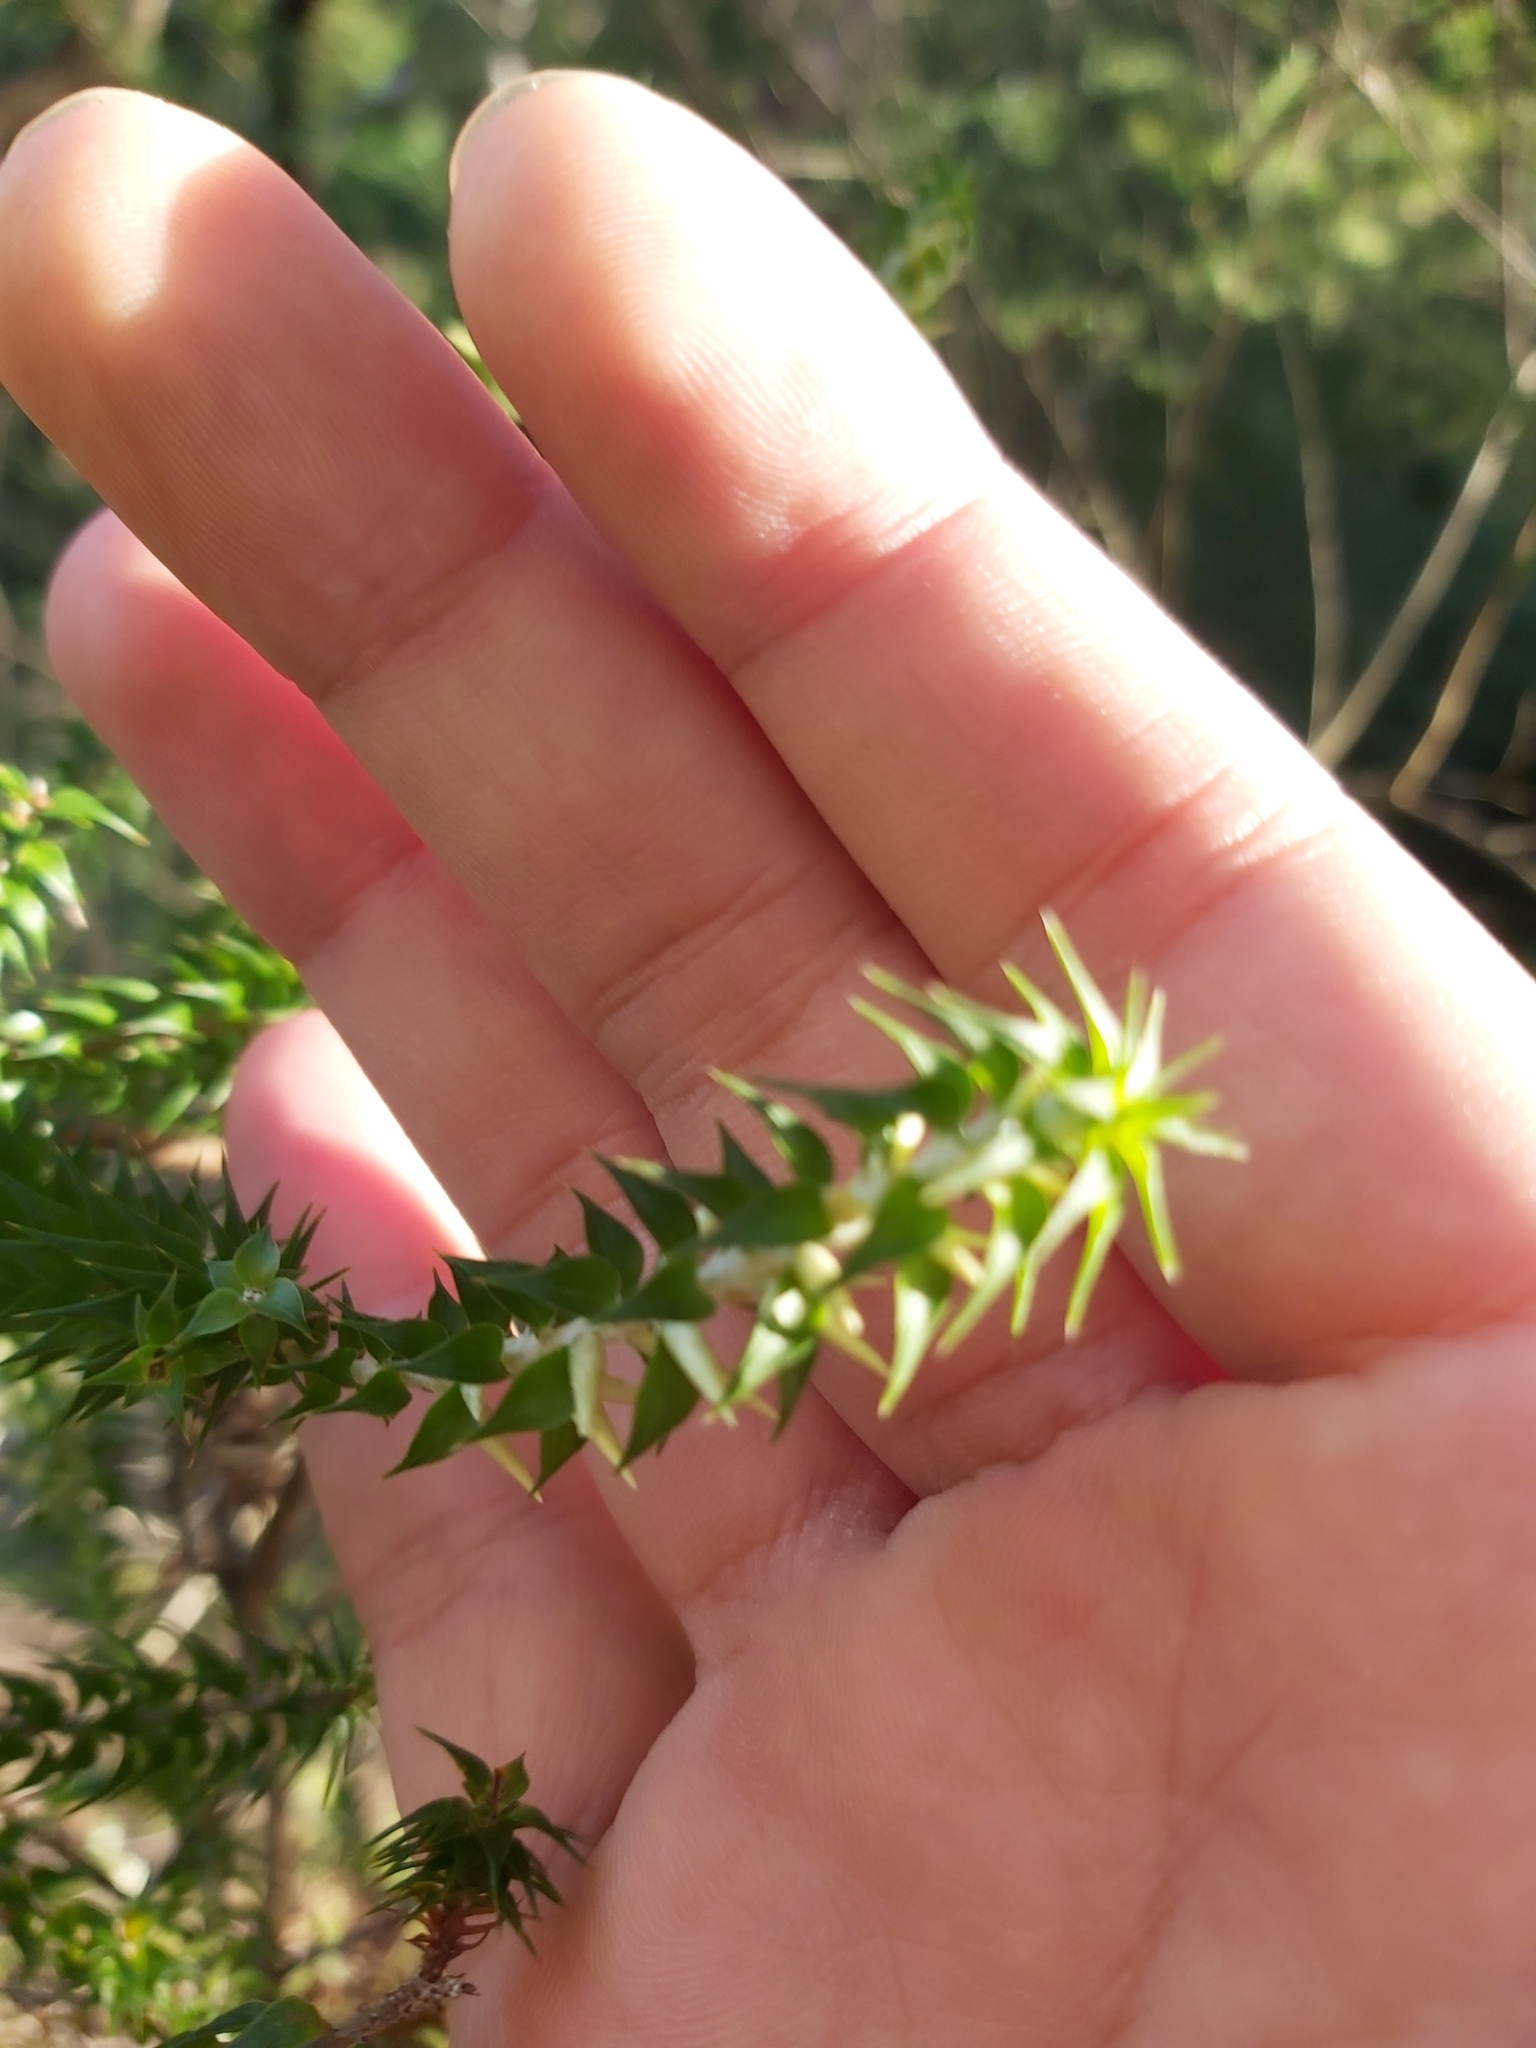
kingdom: Plantae
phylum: Tracheophyta
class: Magnoliopsida
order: Ericales
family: Ericaceae
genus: Woollsia
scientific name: Woollsia pungens
